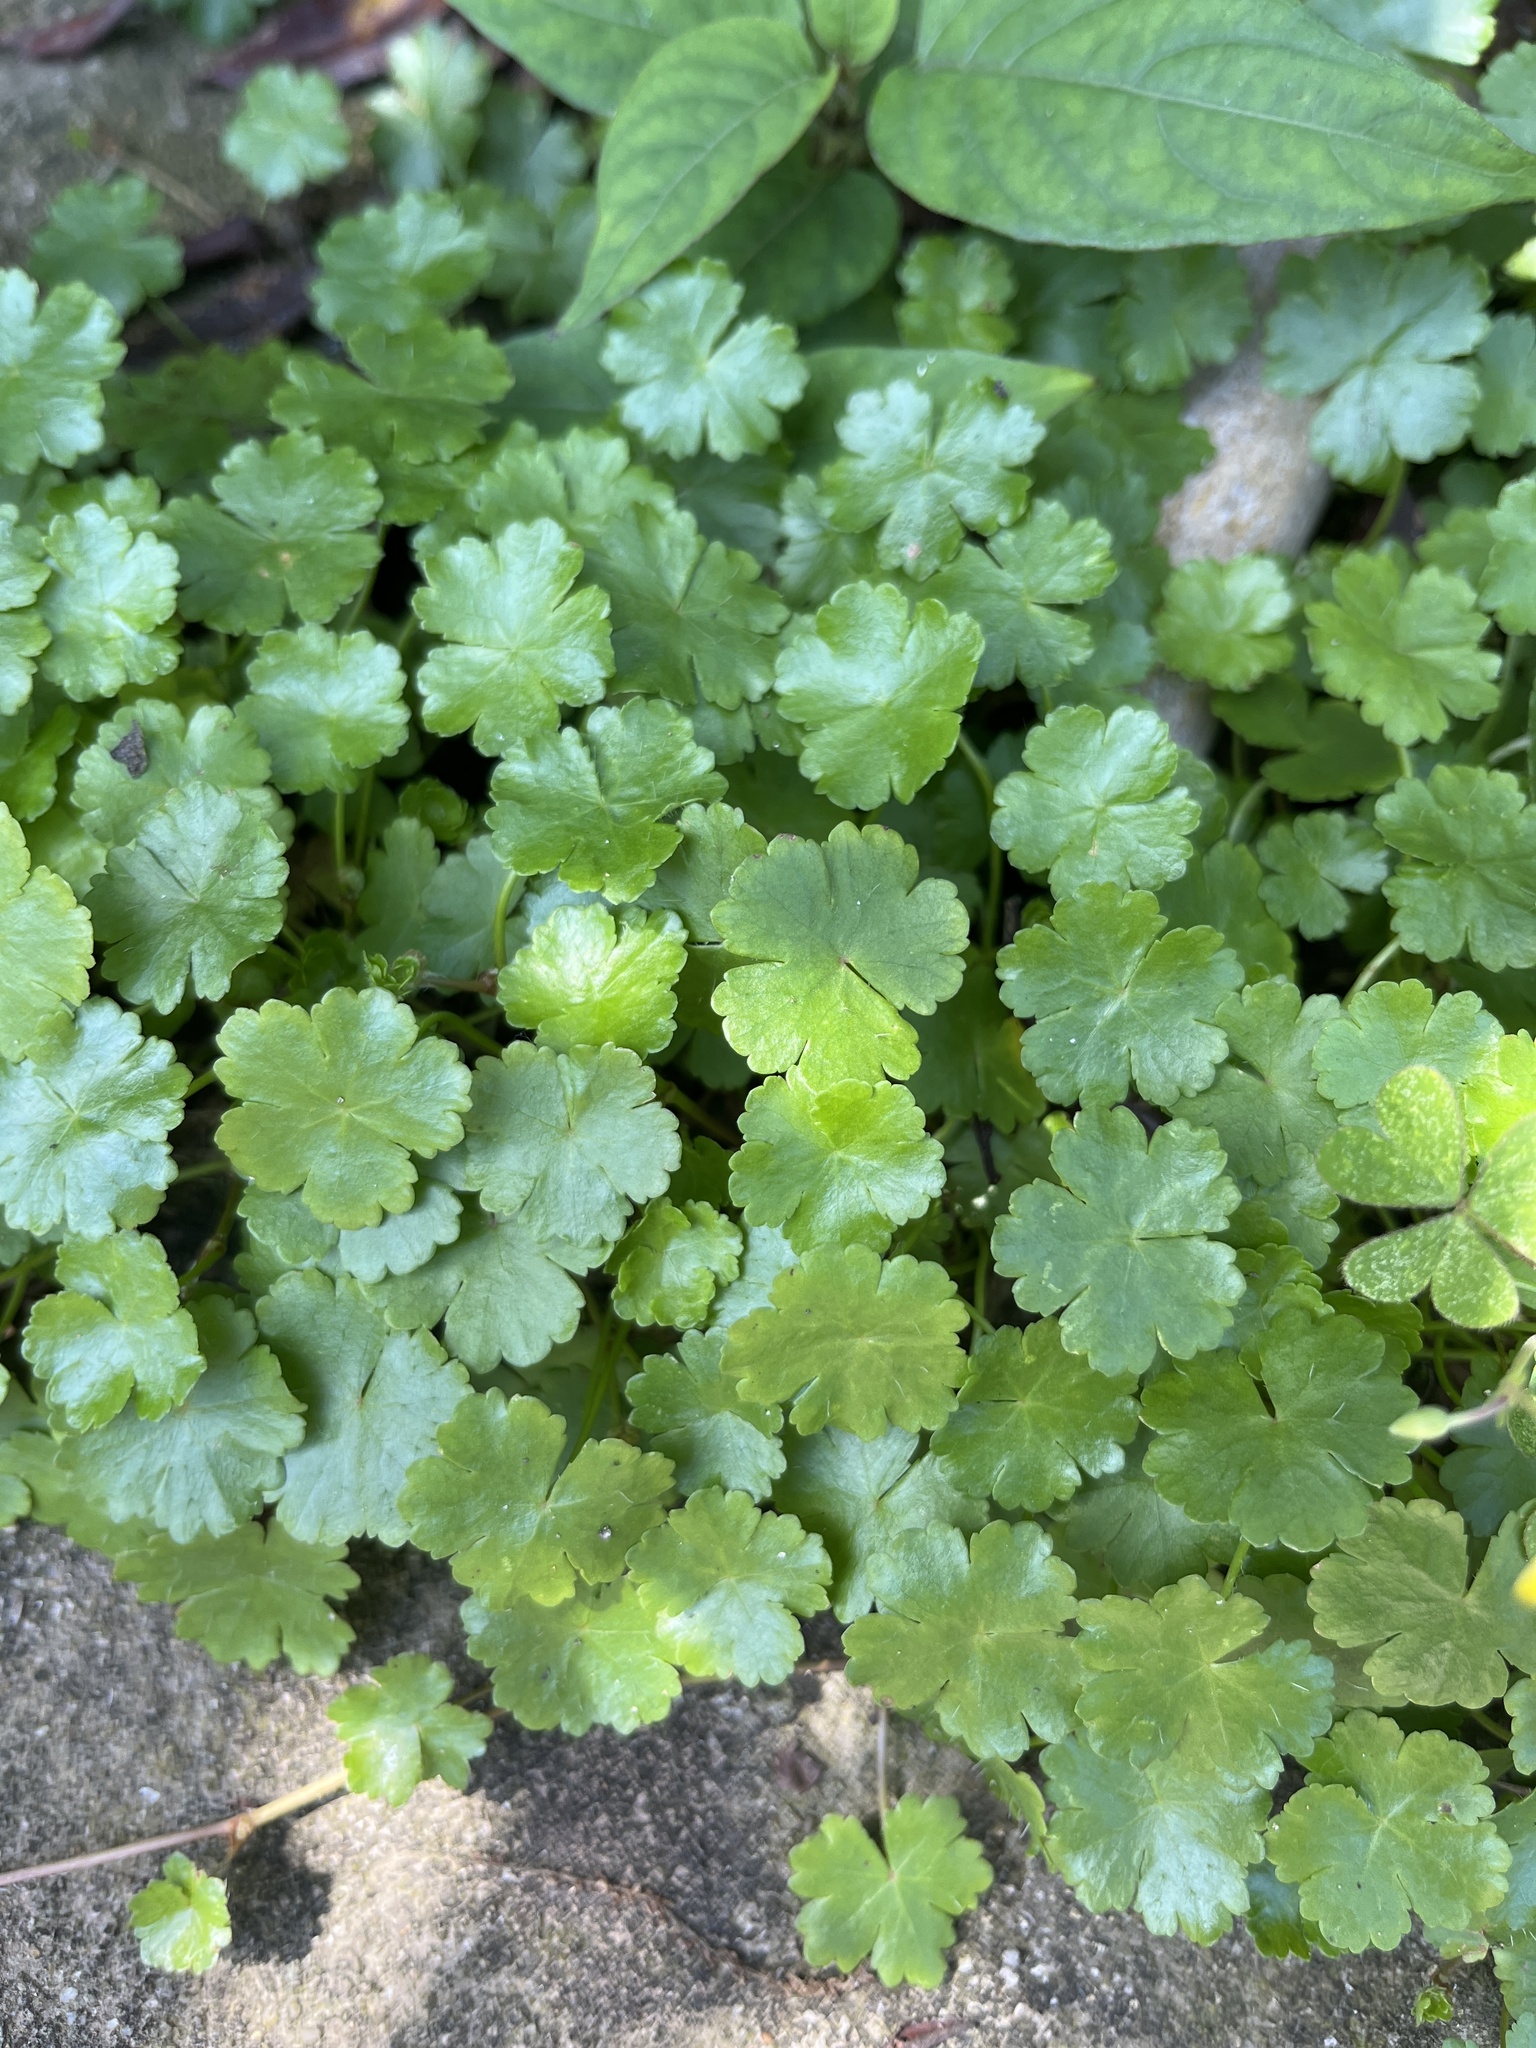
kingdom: Plantae
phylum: Tracheophyta
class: Magnoliopsida
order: Apiales
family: Araliaceae
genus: Hydrocotyle
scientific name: Hydrocotyle sibthorpioides
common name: Lawn marshpennywort
